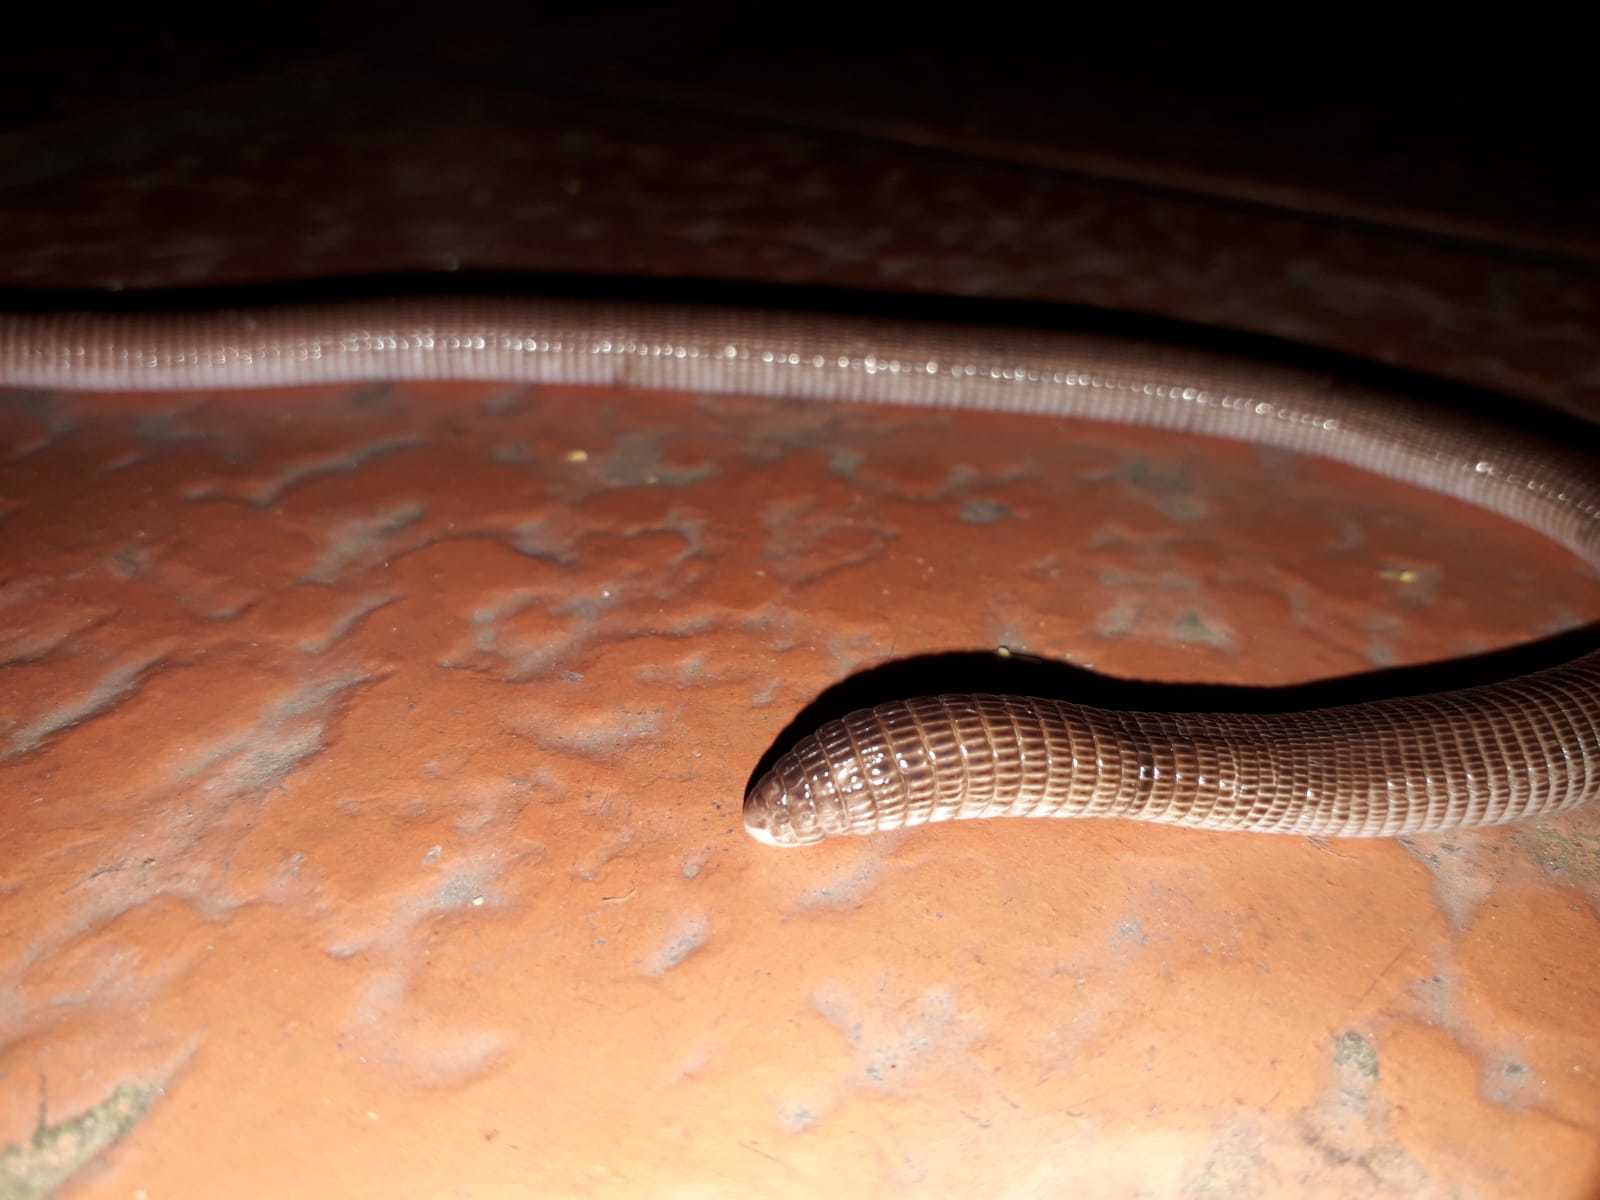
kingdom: Animalia
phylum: Chordata
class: Squamata
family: Amphisbaenidae
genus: Amphisbaena
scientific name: Amphisbaena darwinii
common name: Darwin's ringed worm lizard
